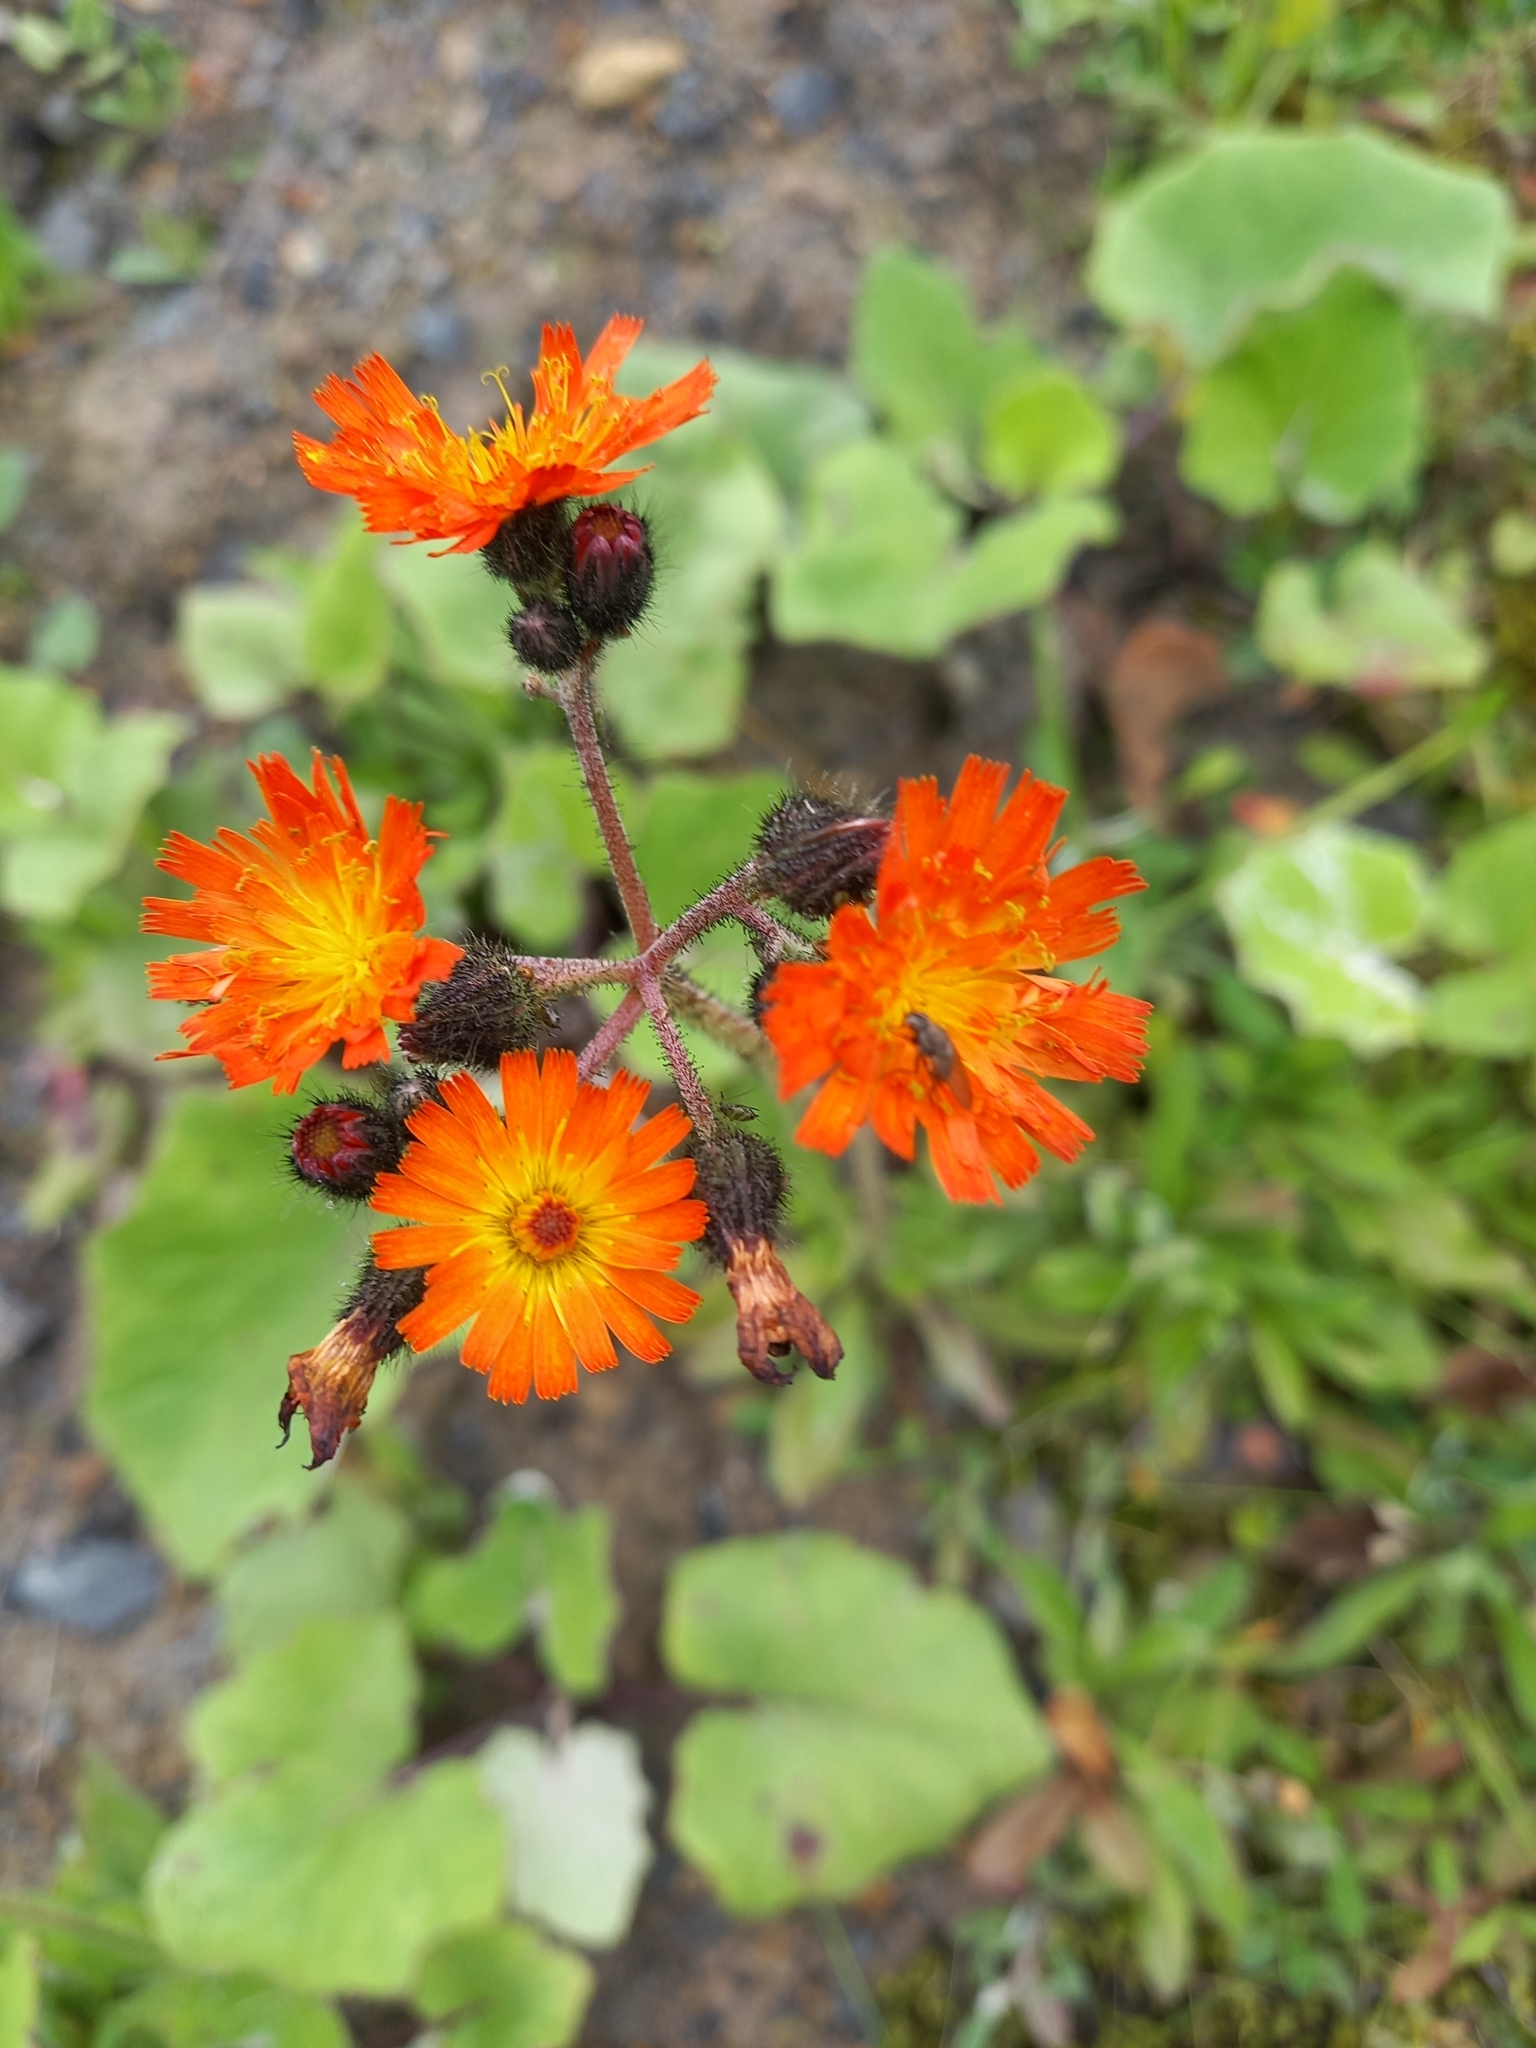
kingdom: Plantae
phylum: Tracheophyta
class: Magnoliopsida
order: Asterales
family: Asteraceae
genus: Pilosella
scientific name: Pilosella aurantiaca
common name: Fox-and-cubs
